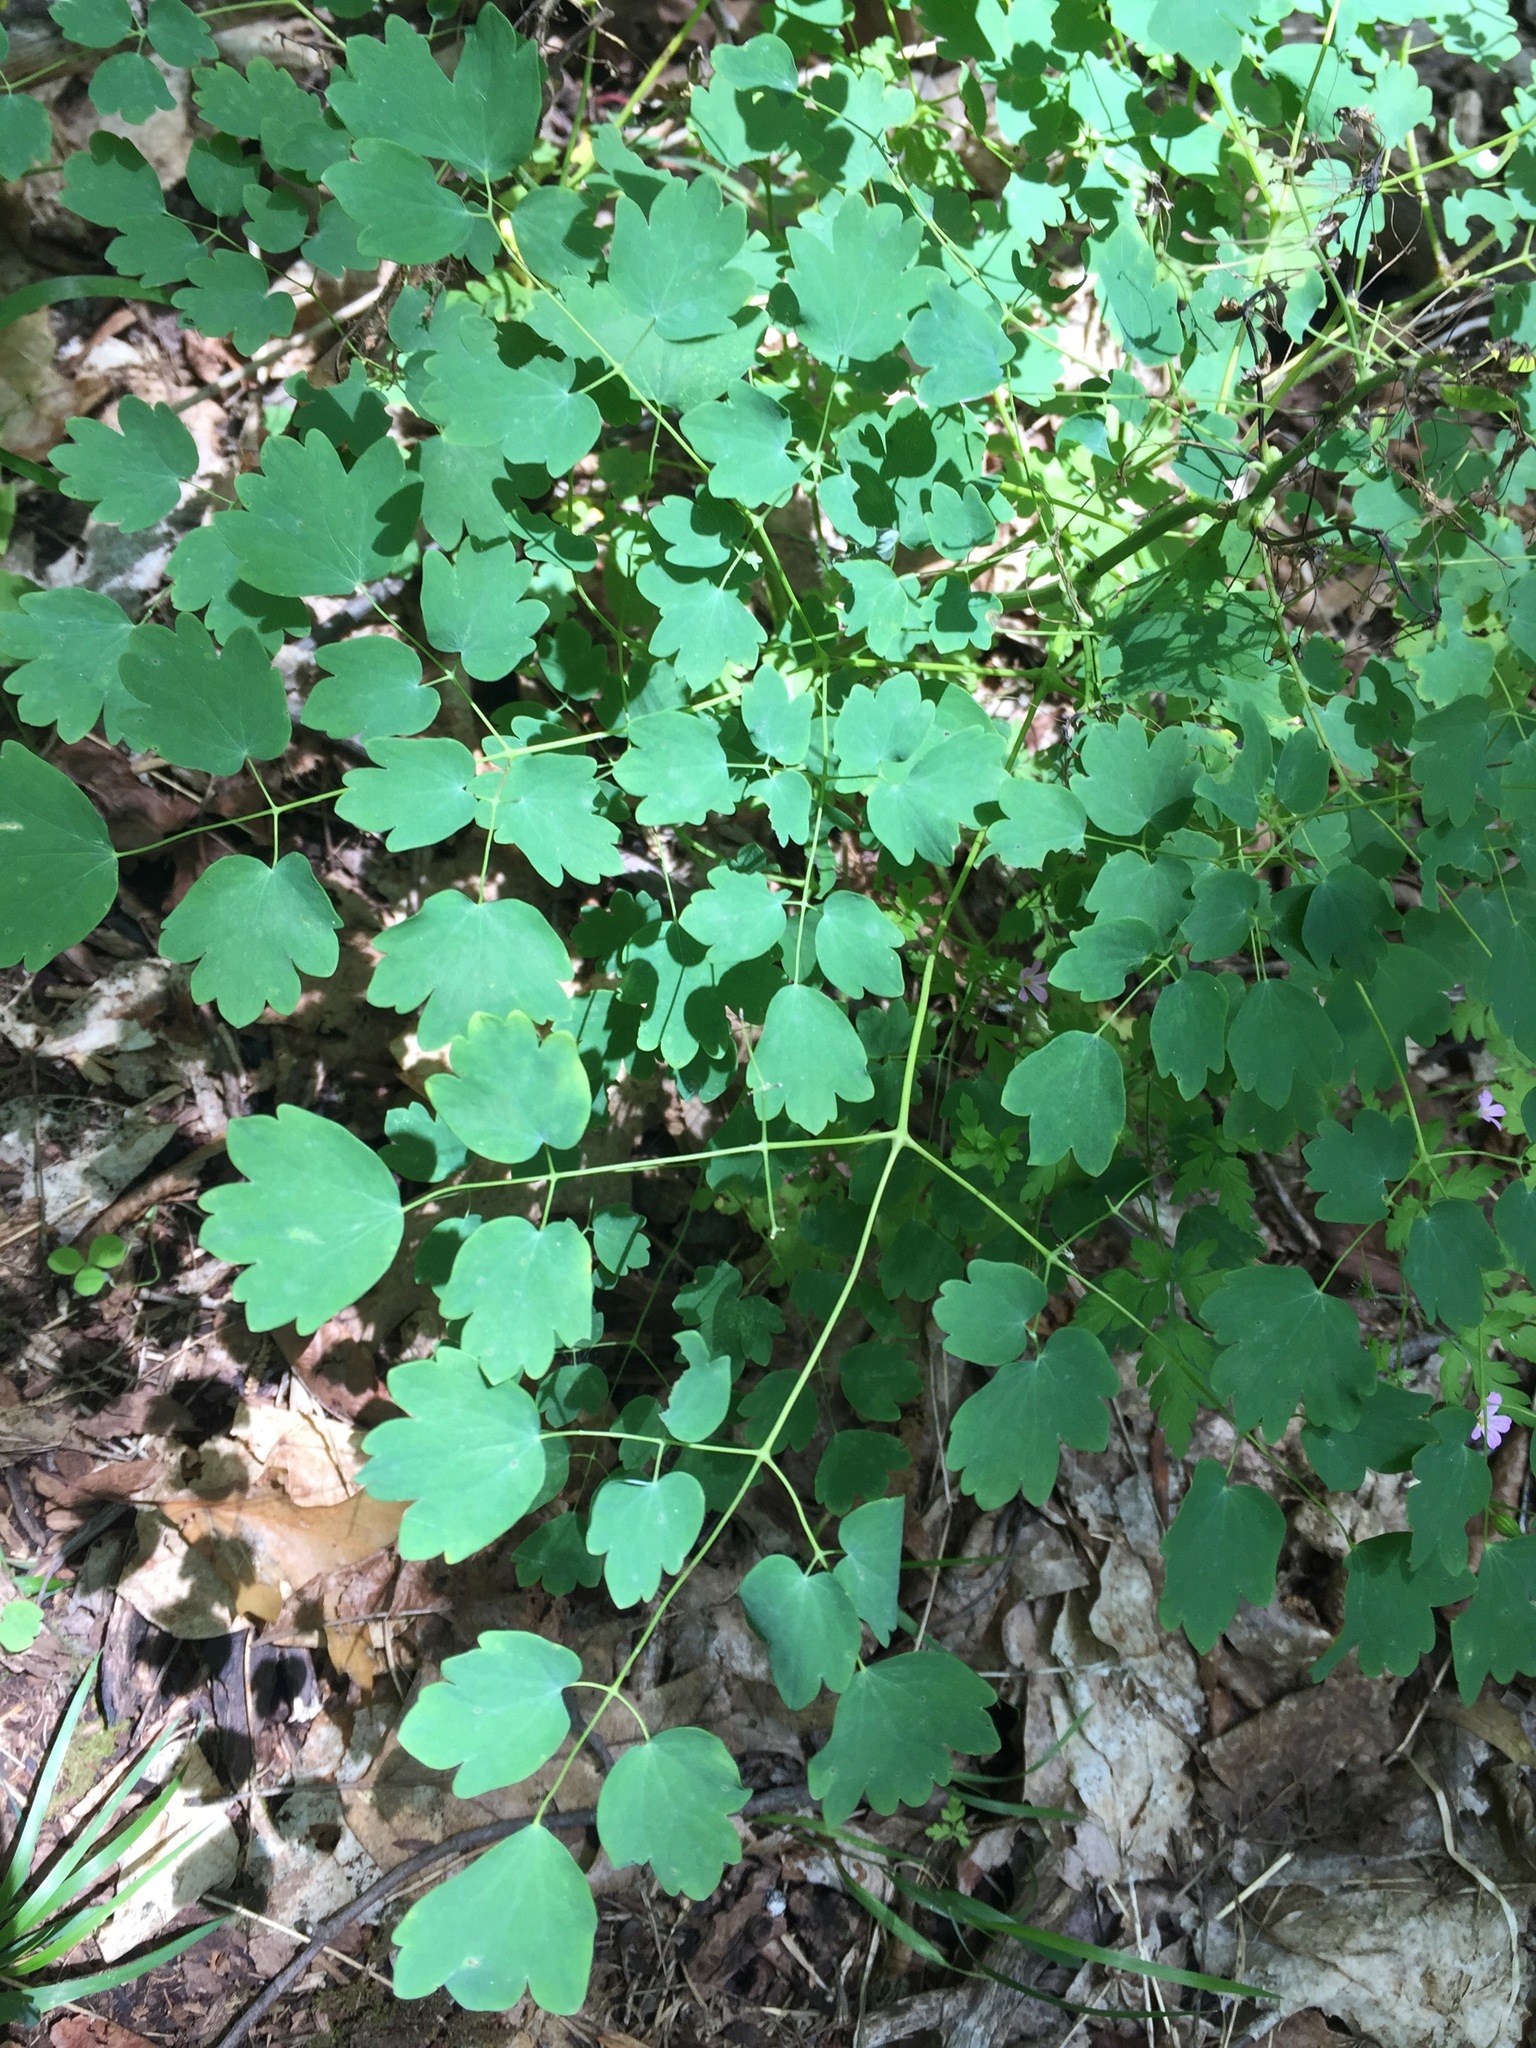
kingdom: Plantae
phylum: Tracheophyta
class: Magnoliopsida
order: Ranunculales
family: Ranunculaceae
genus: Thalictrum
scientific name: Thalictrum dioicum
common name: Early meadow-rue
